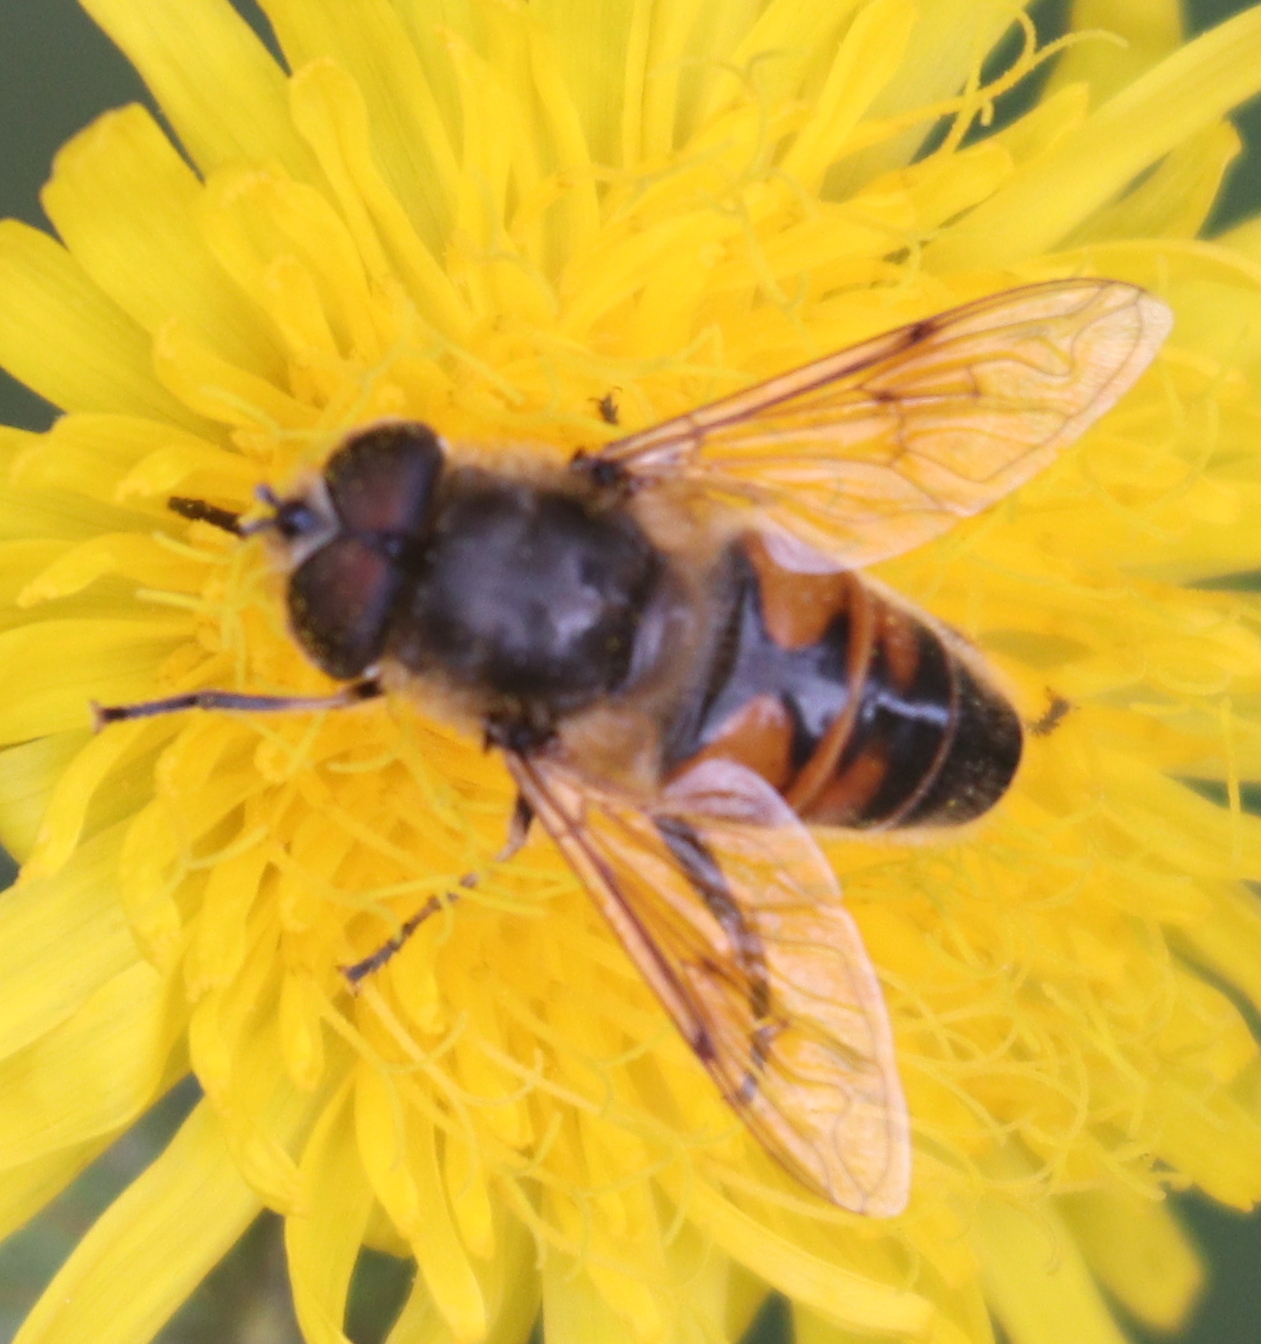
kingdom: Animalia
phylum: Arthropoda
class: Insecta
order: Diptera
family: Syrphidae
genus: Eristalis
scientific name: Eristalis tenax
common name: Drone fly
